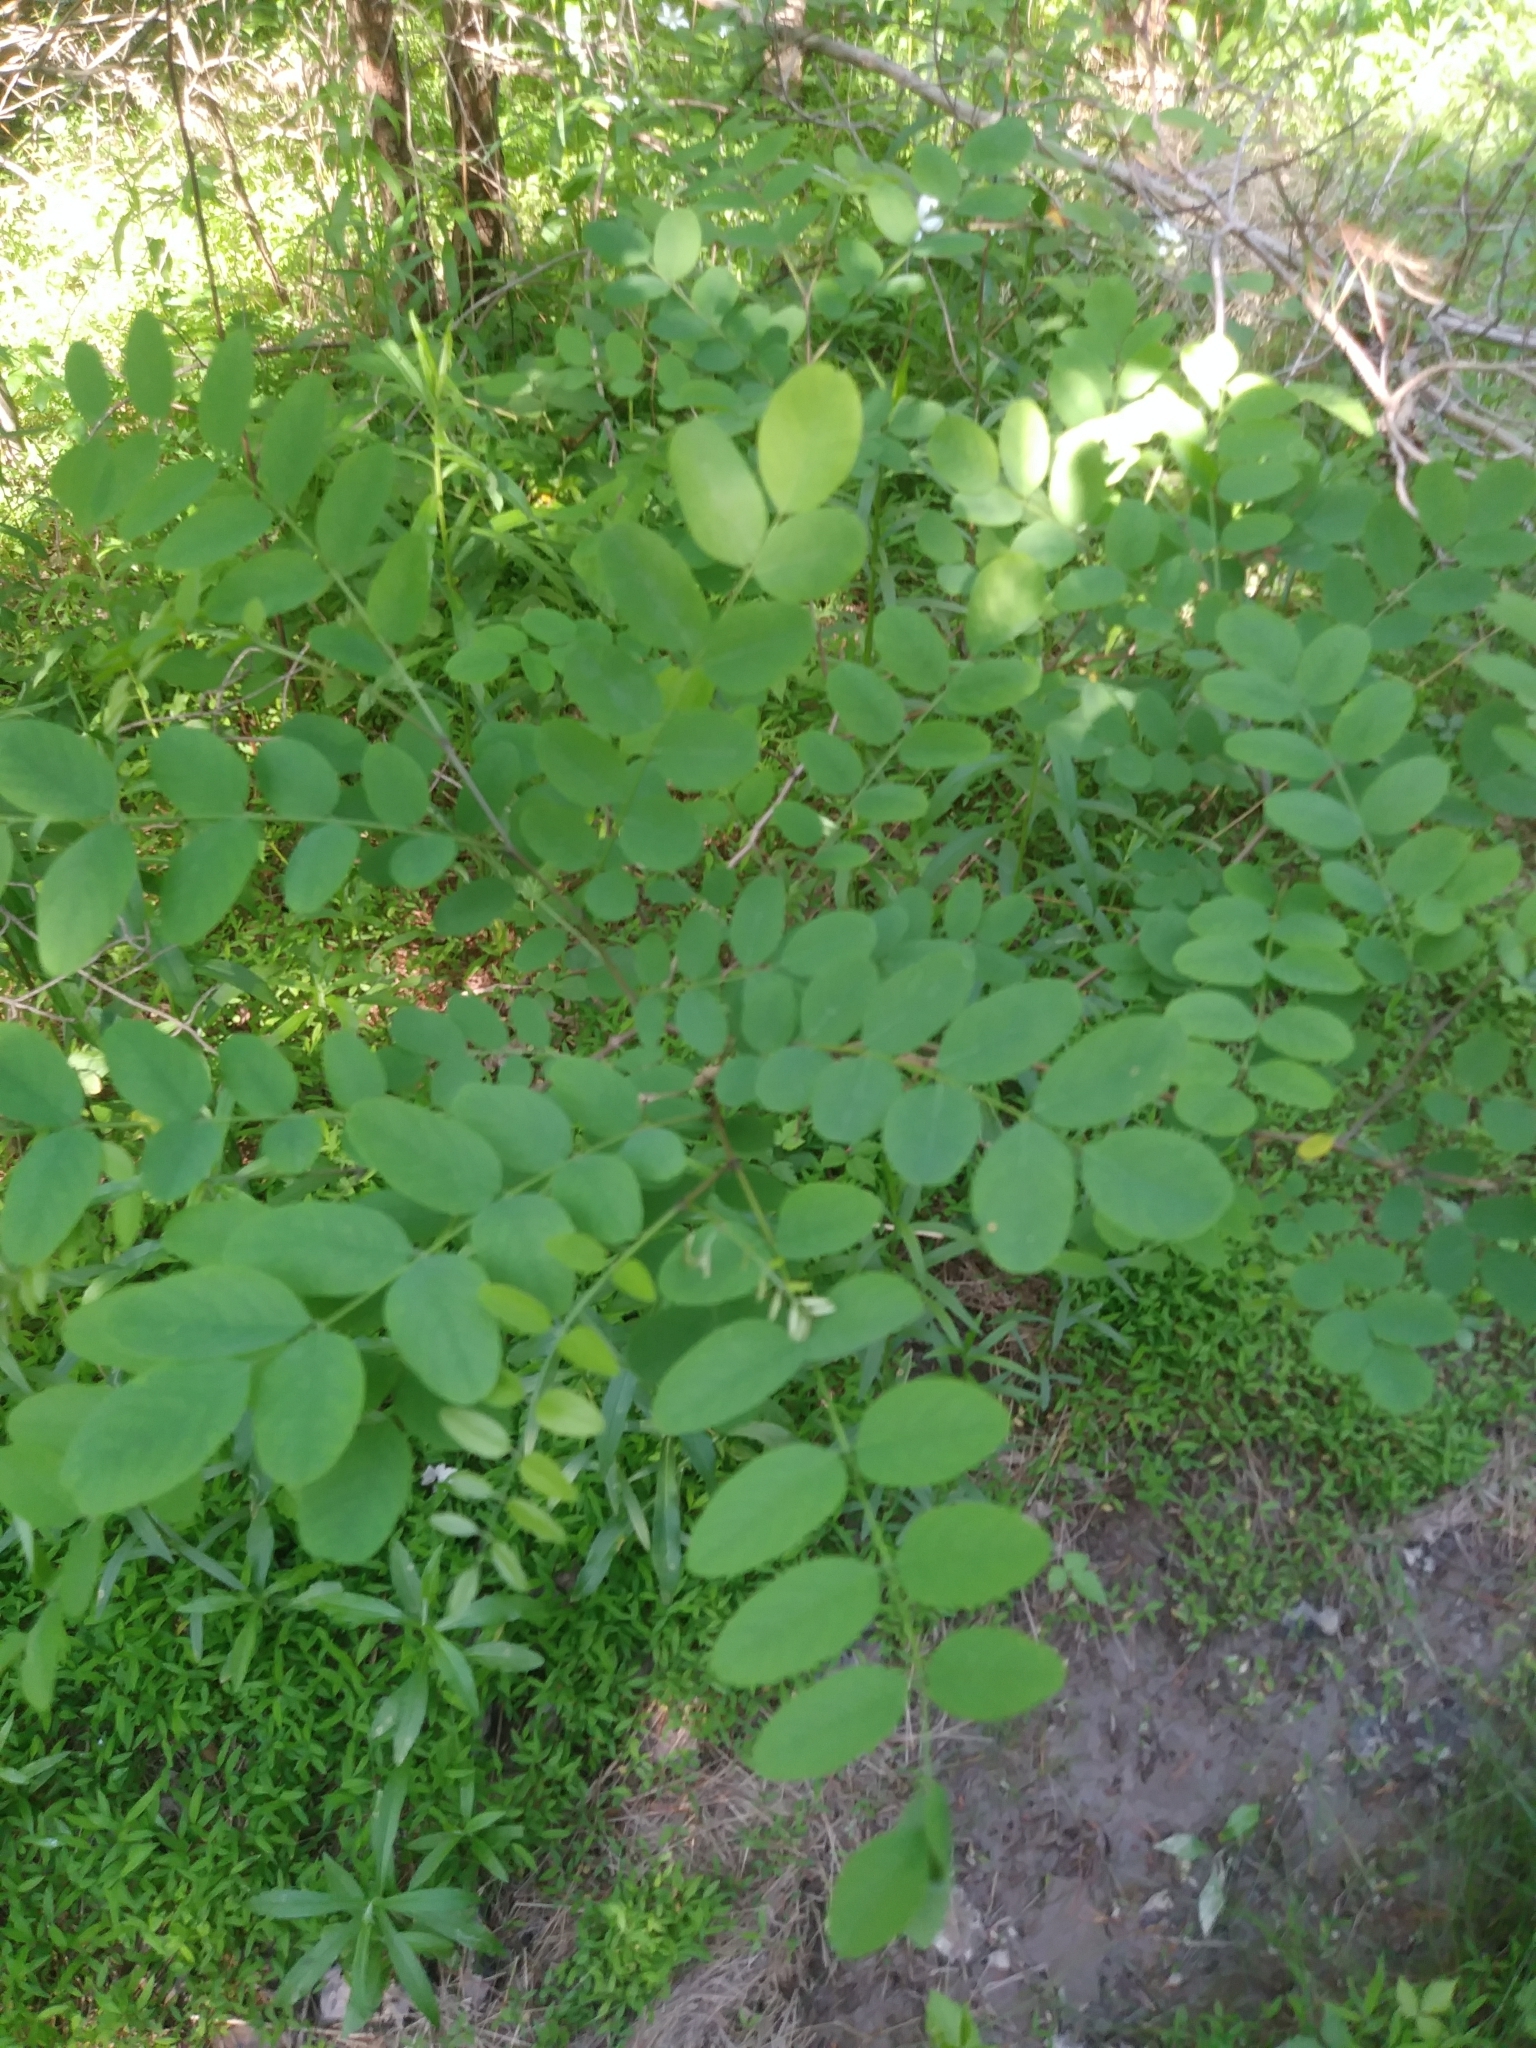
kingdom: Plantae
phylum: Tracheophyta
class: Magnoliopsida
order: Fabales
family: Fabaceae
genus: Robinia
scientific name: Robinia pseudoacacia
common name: Black locust
